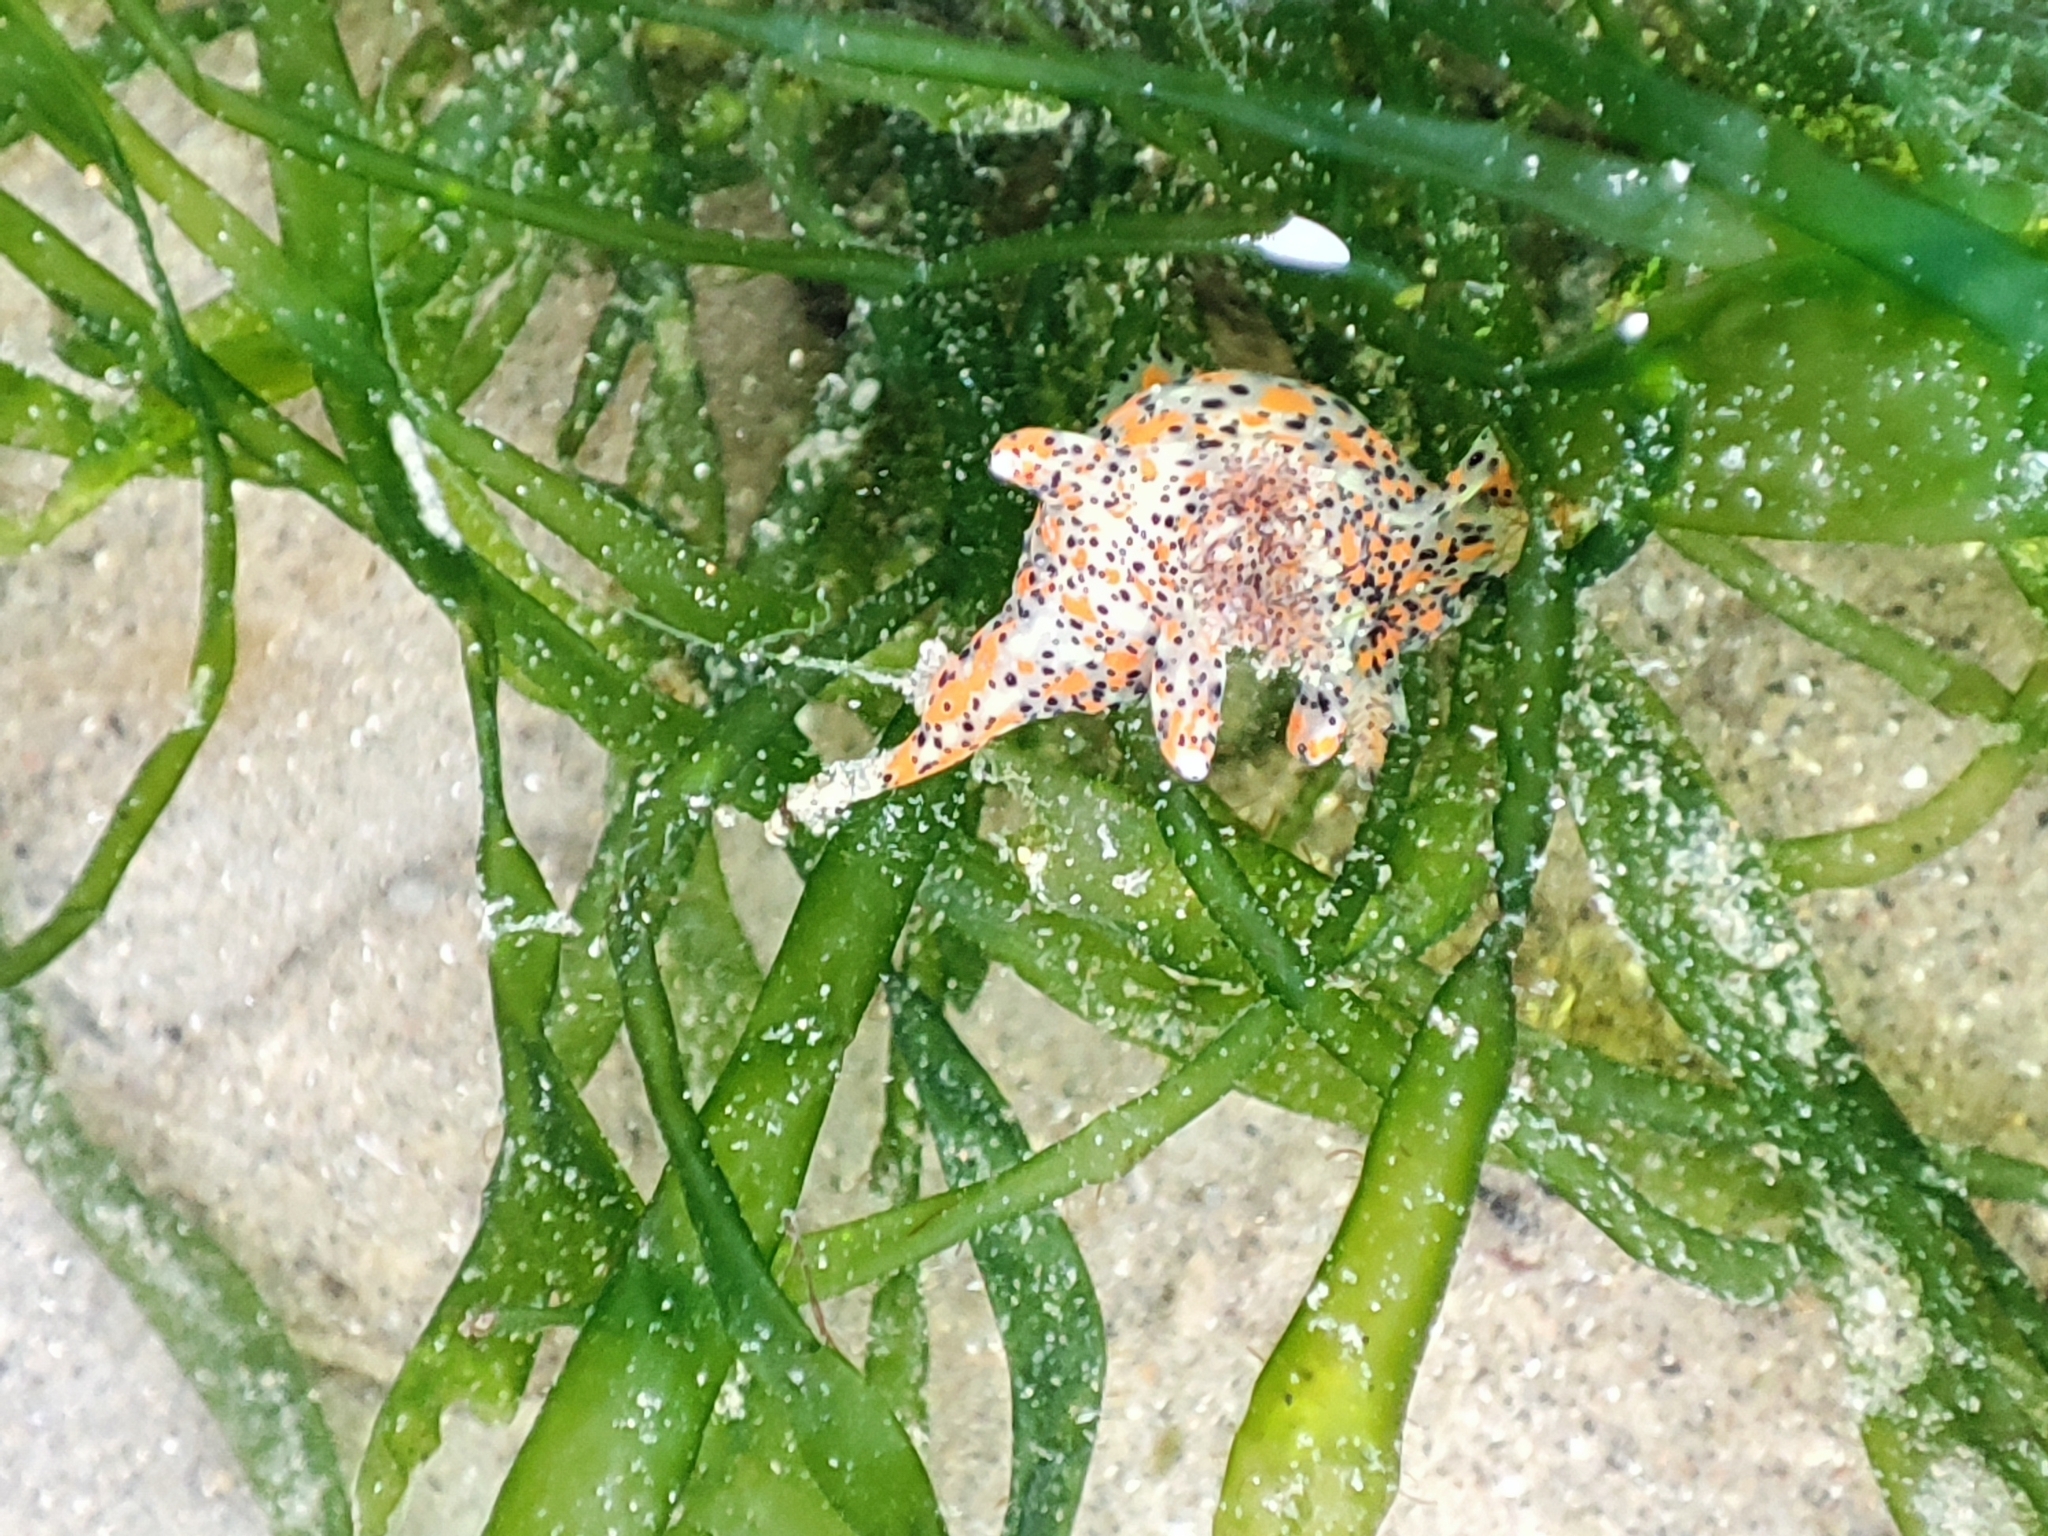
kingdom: Animalia
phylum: Mollusca
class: Gastropoda
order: Nudibranchia
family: Polyceridae
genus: Thecacera
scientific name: Thecacera pennigera
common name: Thecacera
